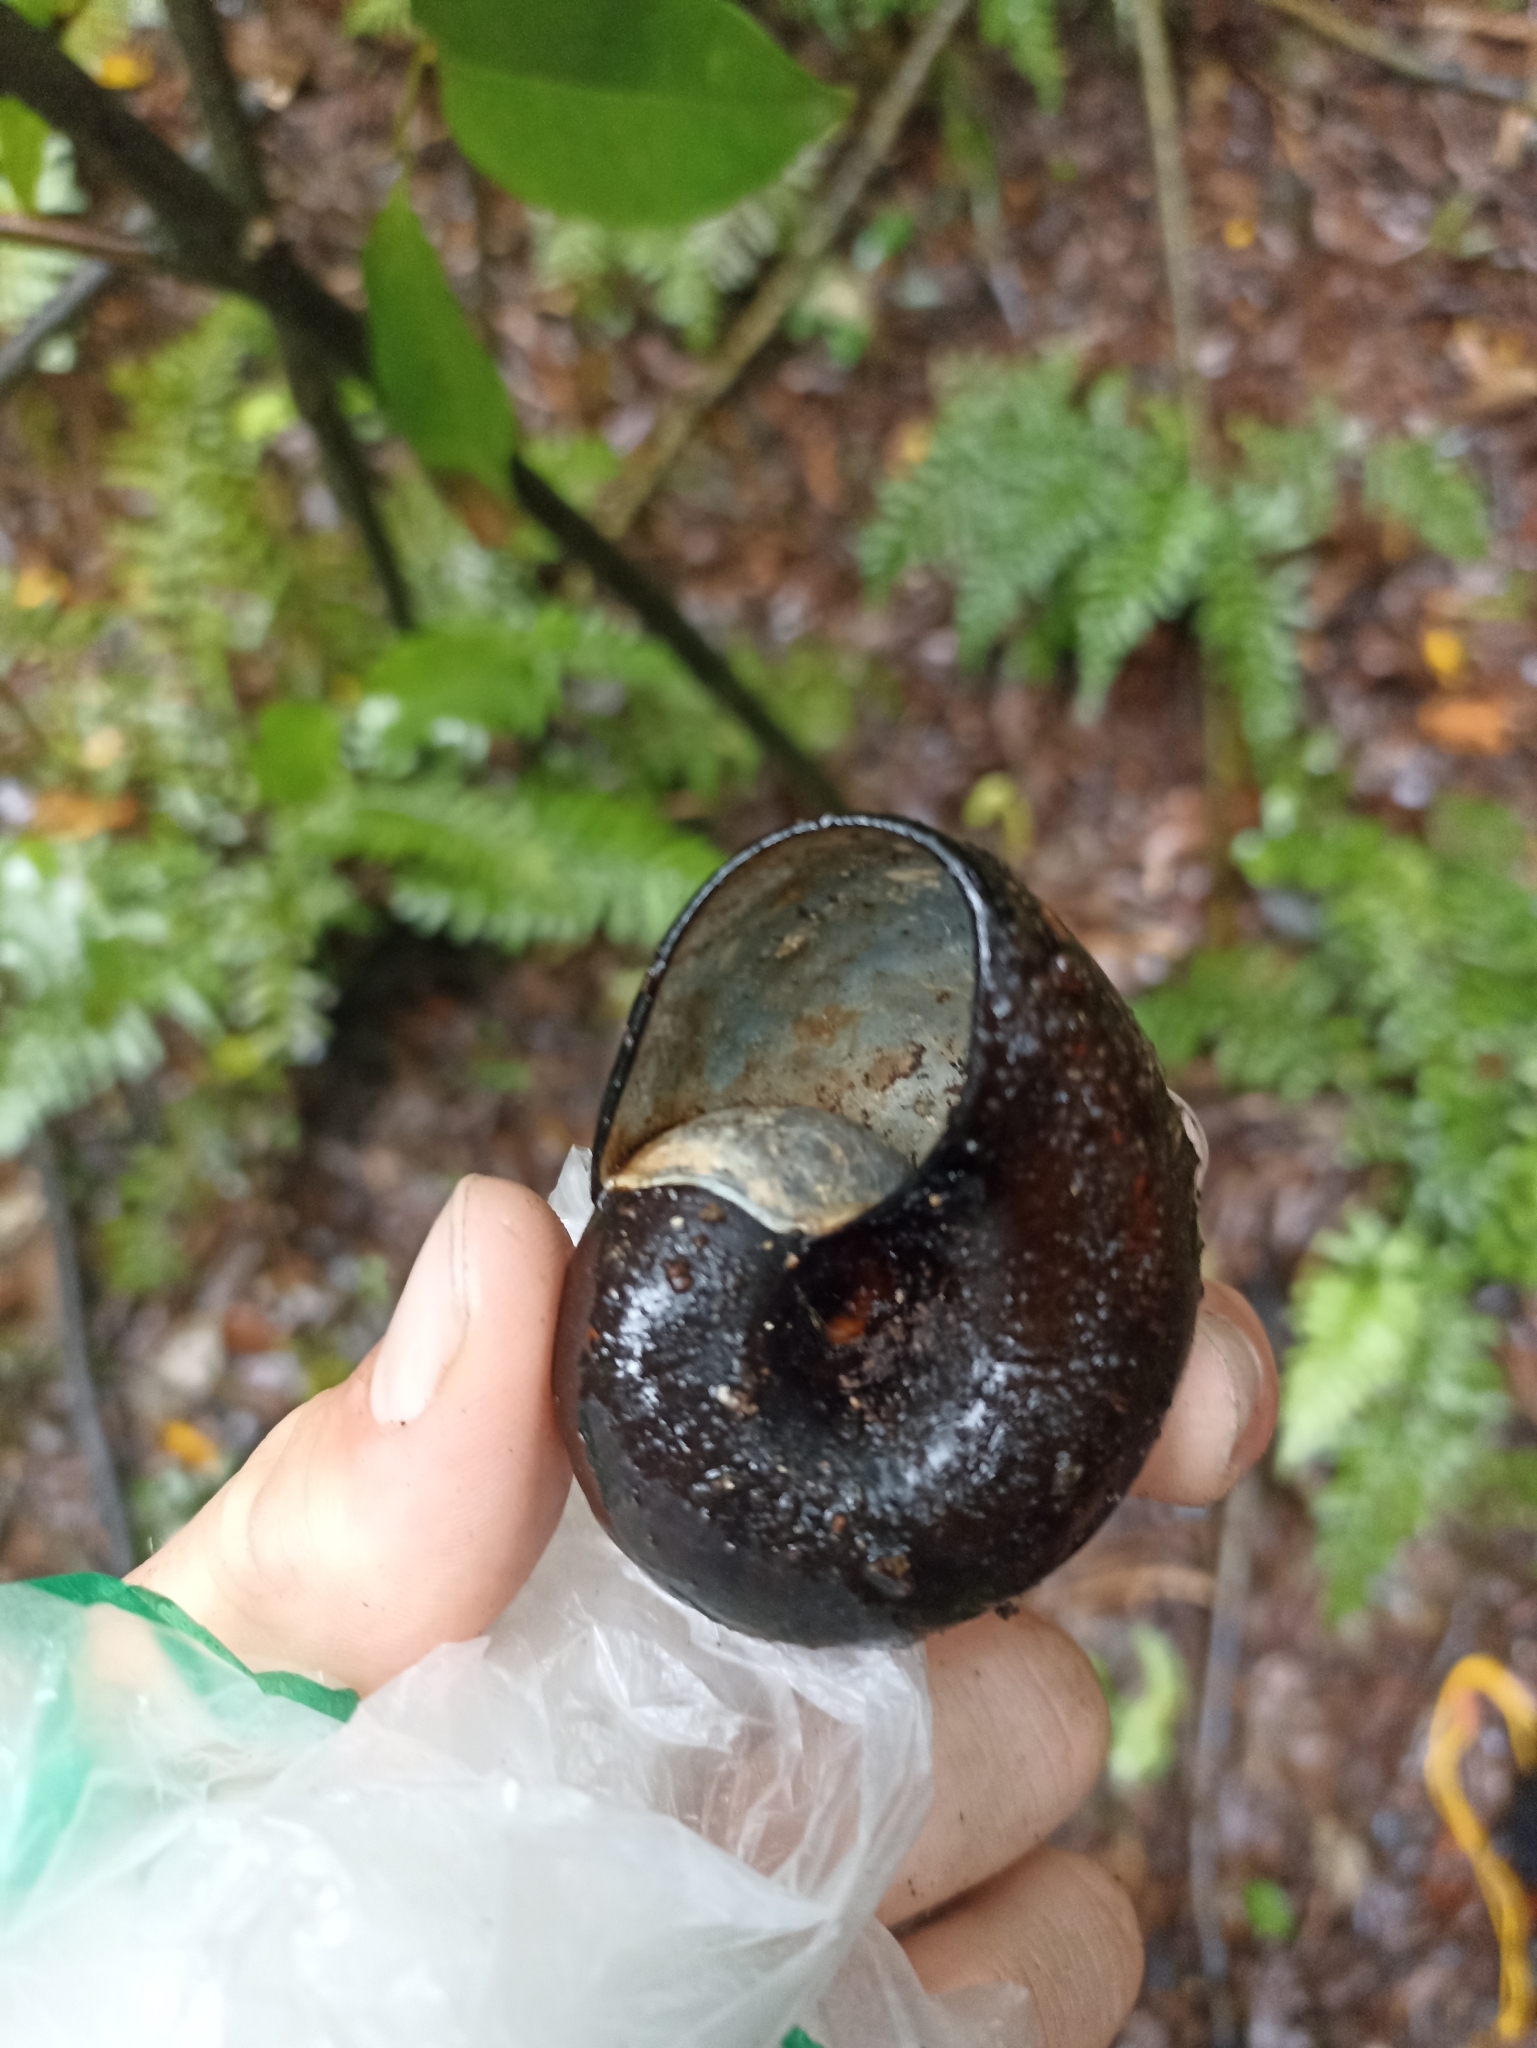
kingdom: Animalia
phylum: Mollusca
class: Gastropoda
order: Stylommatophora
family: Rhytididae
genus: Paryphanta
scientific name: Paryphanta busbyi
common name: Kauri snail
